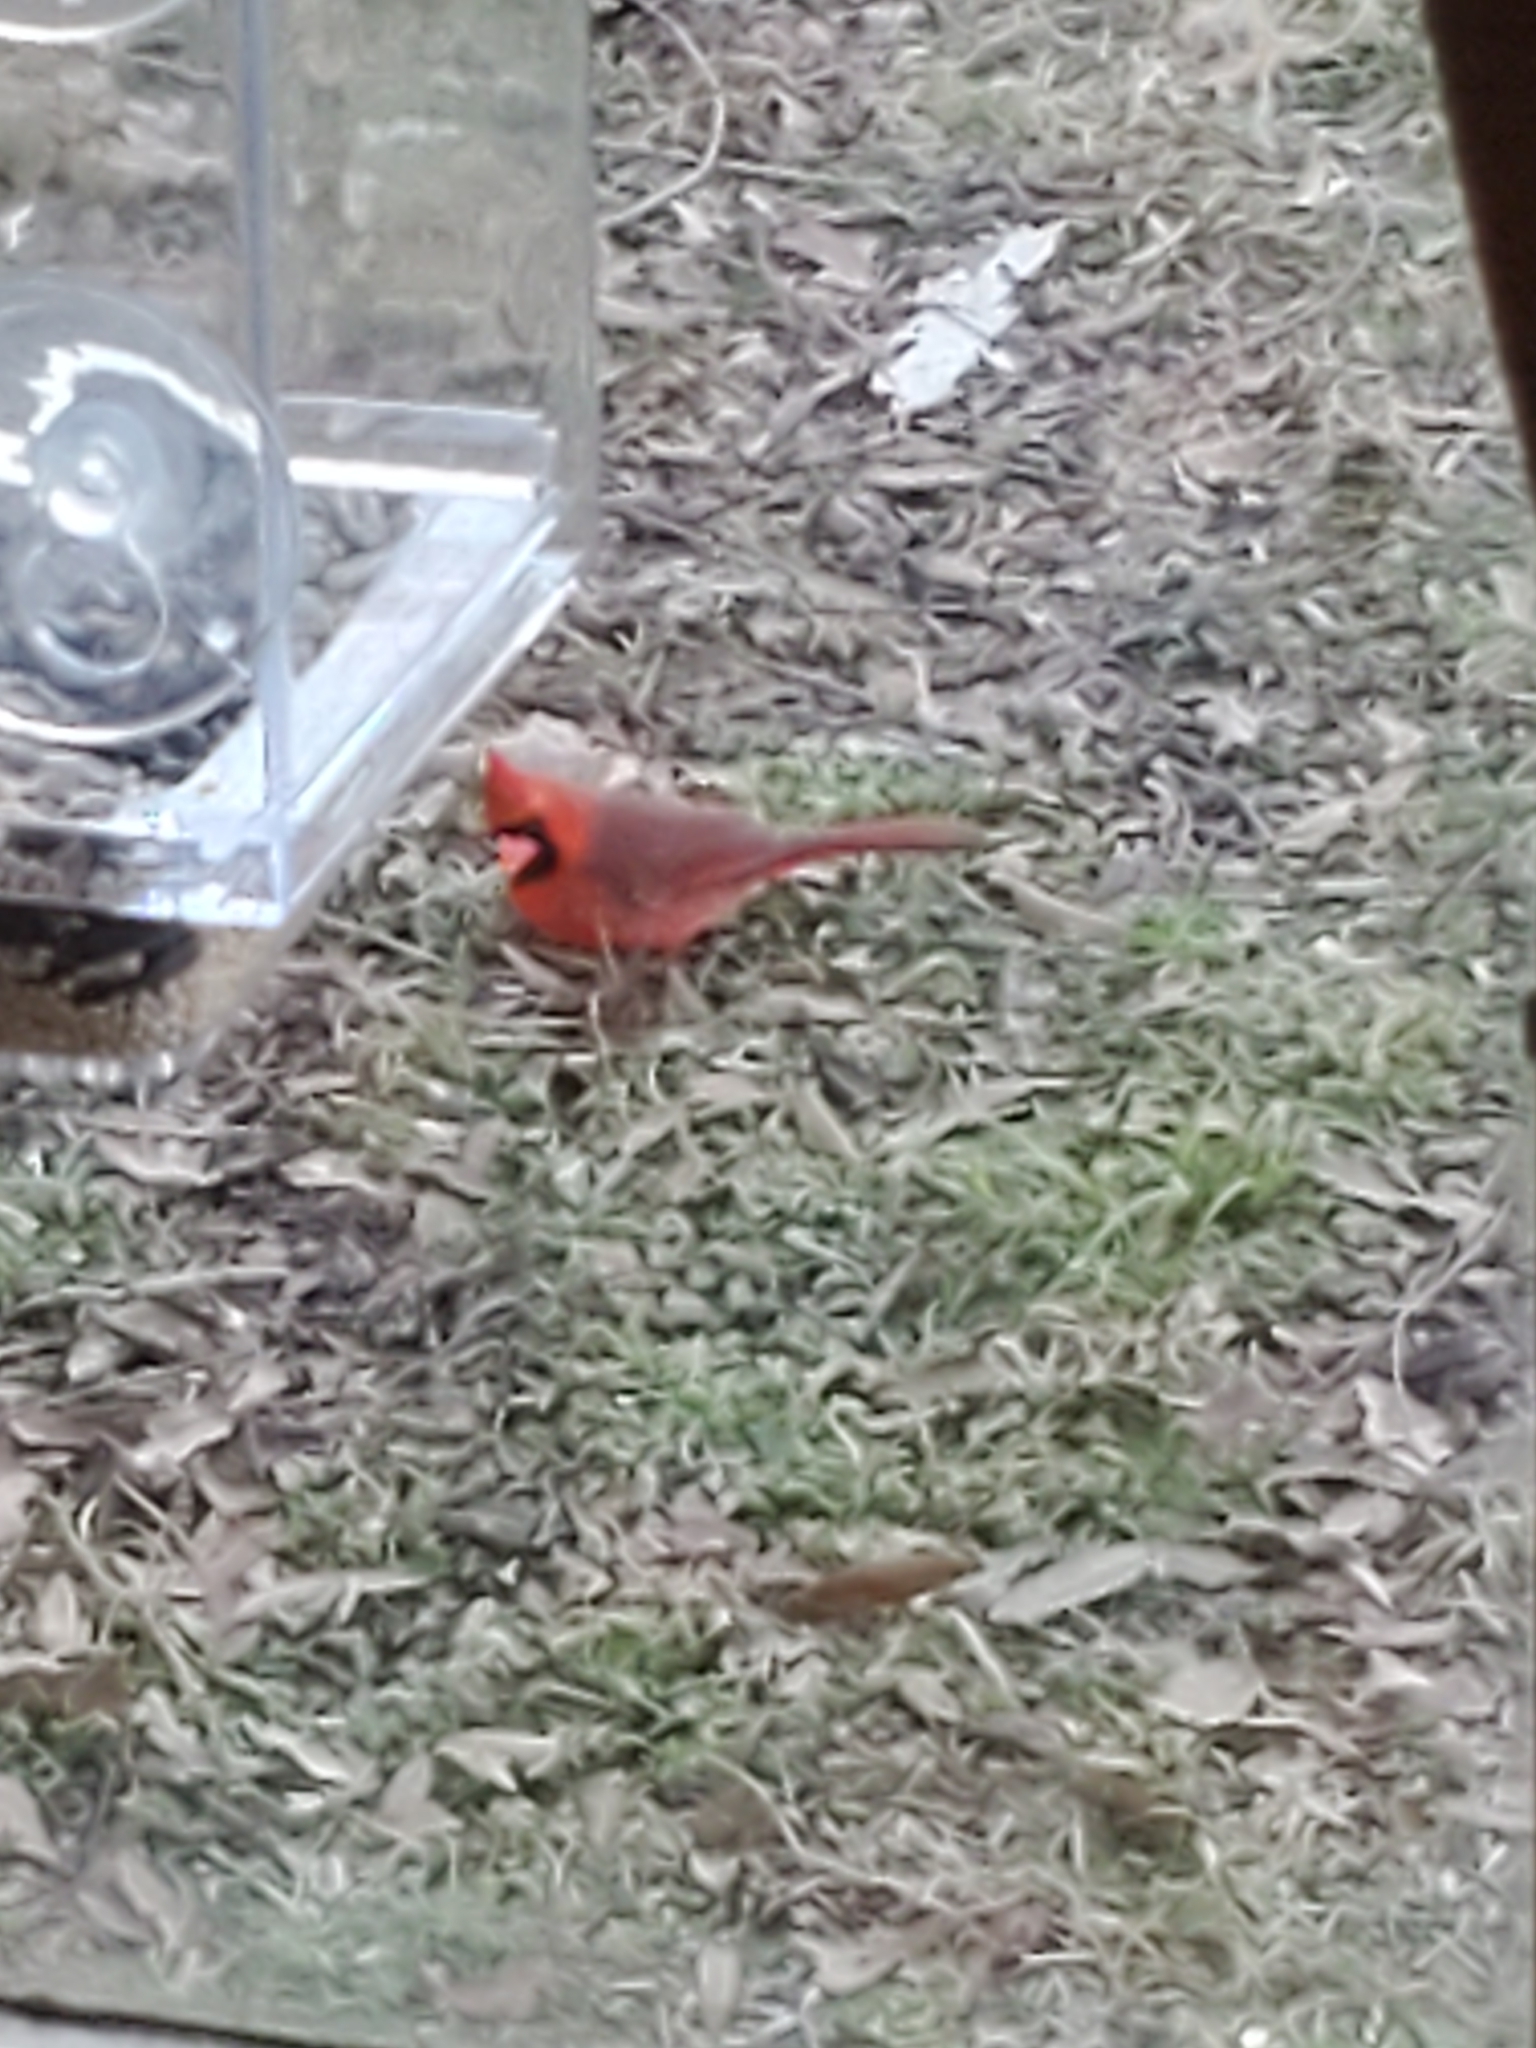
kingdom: Animalia
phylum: Chordata
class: Aves
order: Passeriformes
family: Cardinalidae
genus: Cardinalis
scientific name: Cardinalis cardinalis
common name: Northern cardinal
